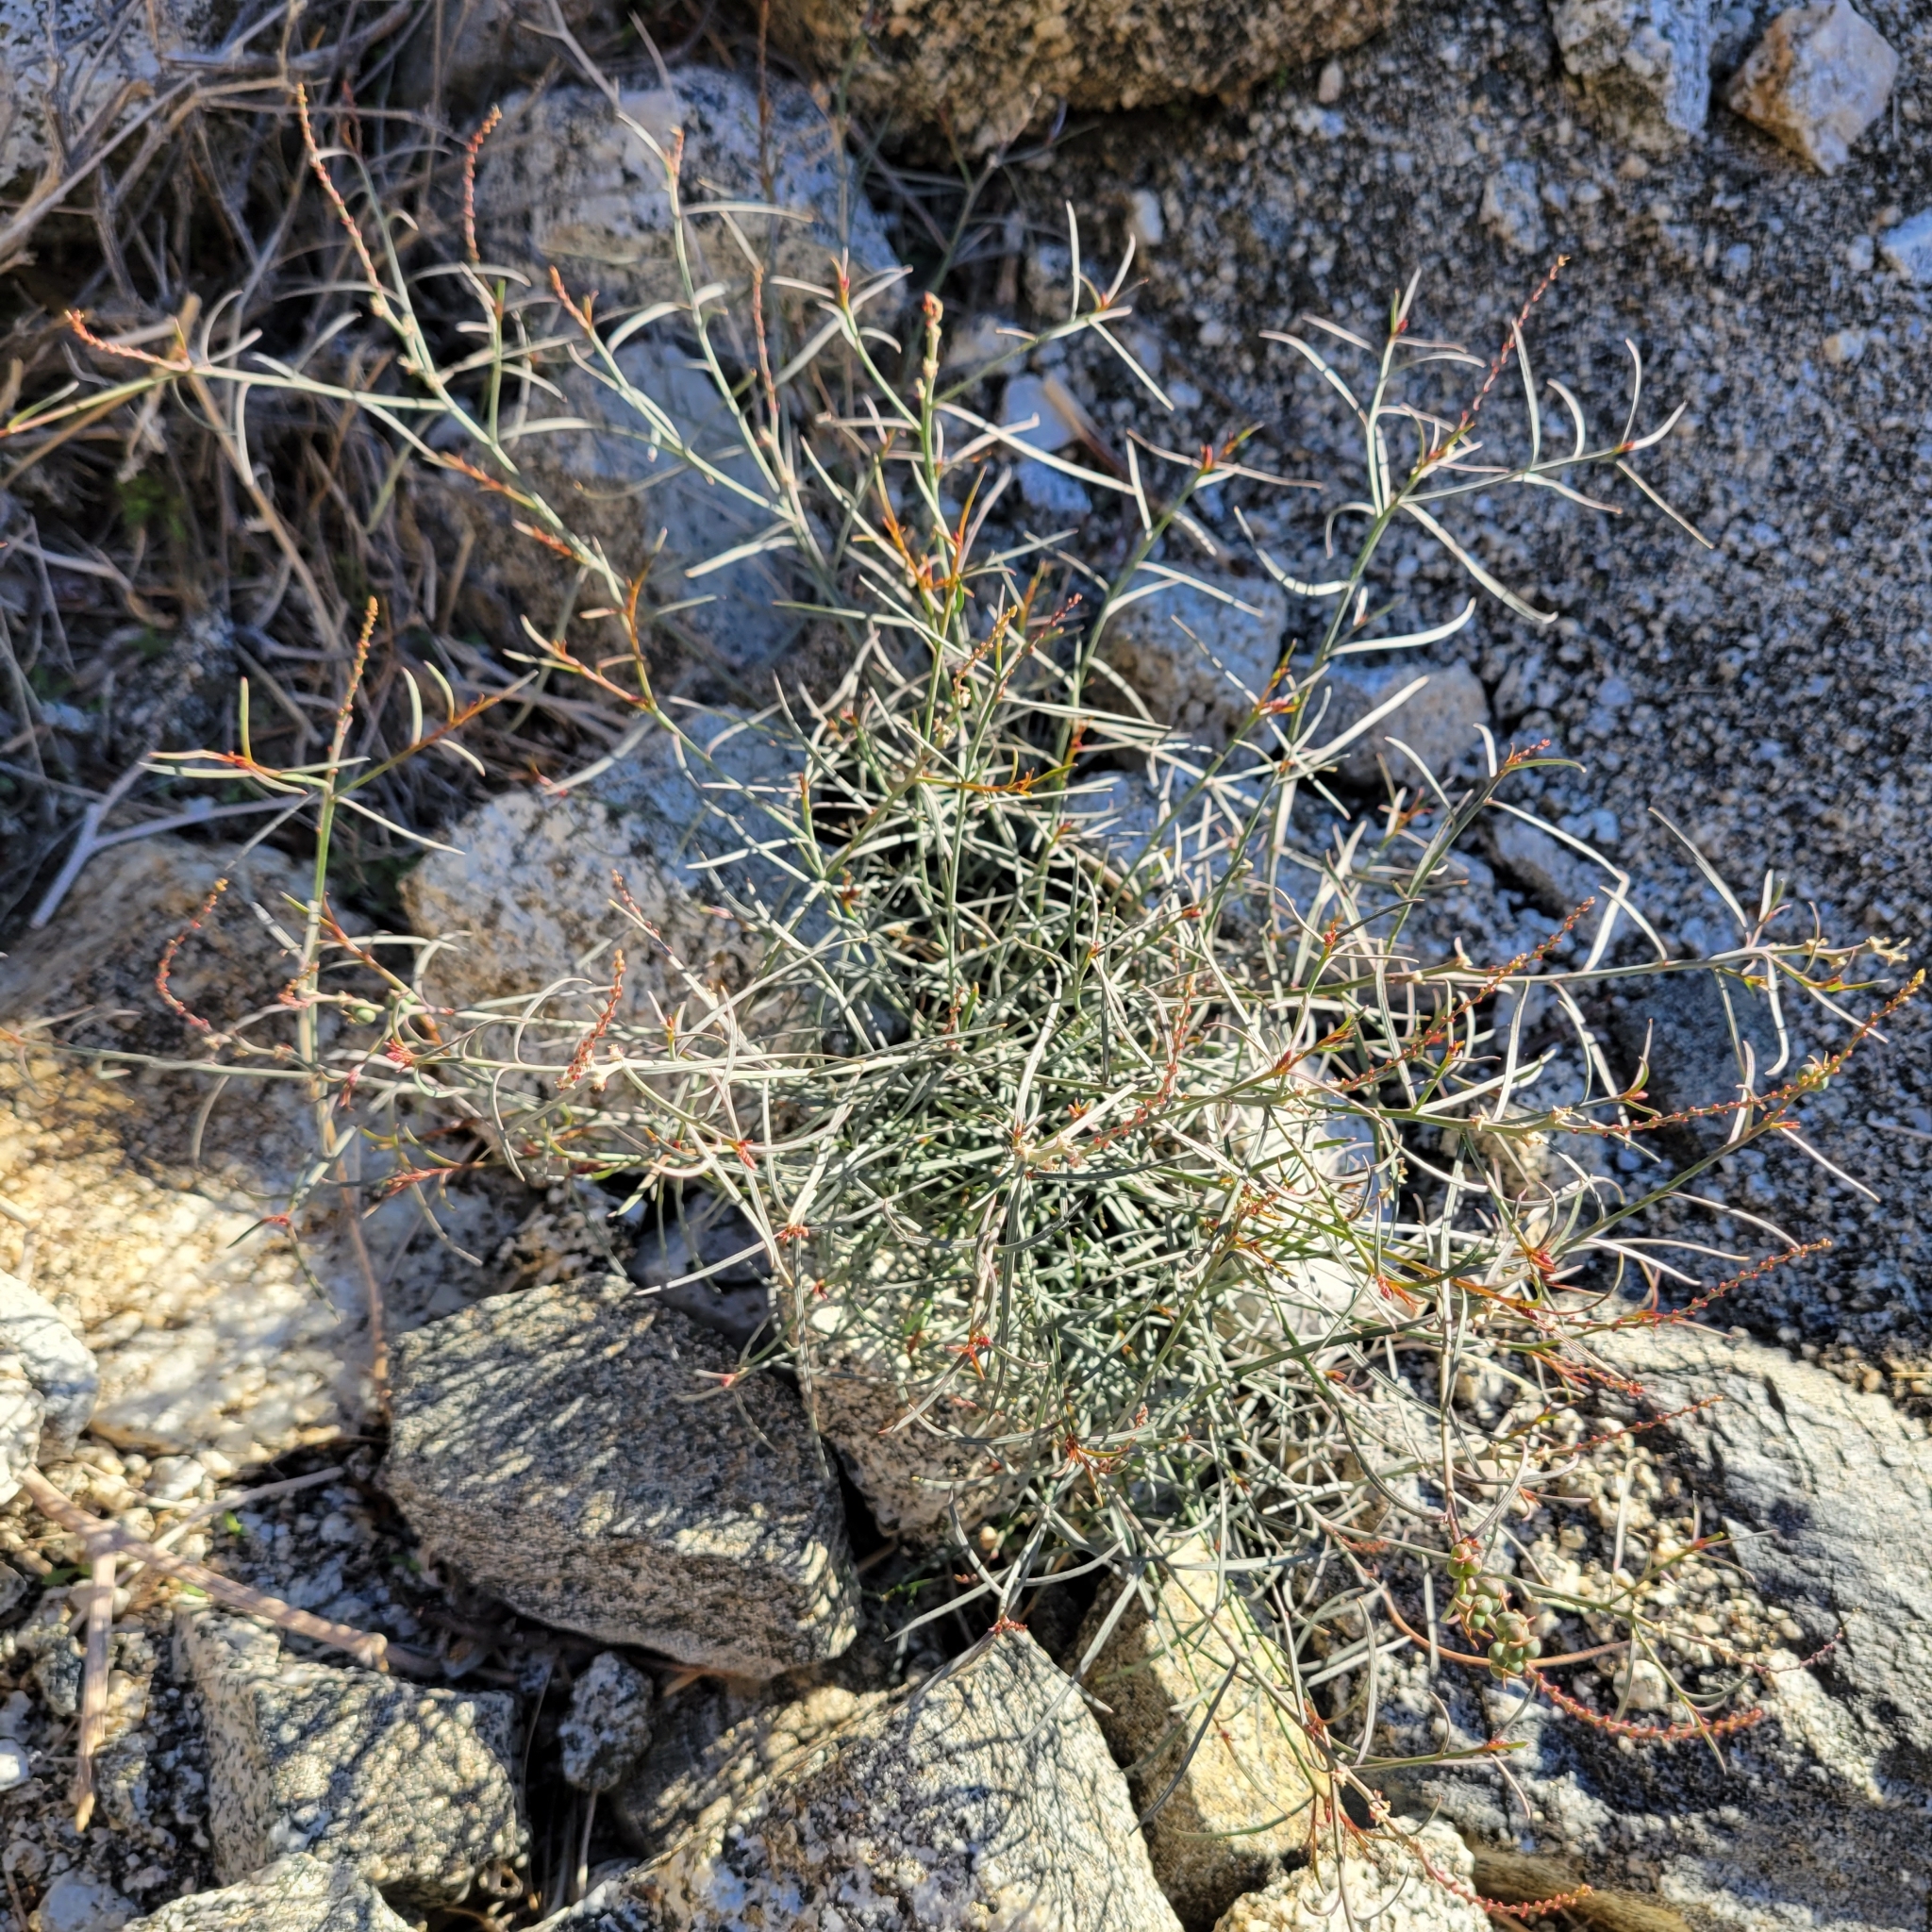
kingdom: Plantae
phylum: Tracheophyta
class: Magnoliopsida
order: Malpighiales
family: Euphorbiaceae
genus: Stillingia
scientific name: Stillingia linearifolia
